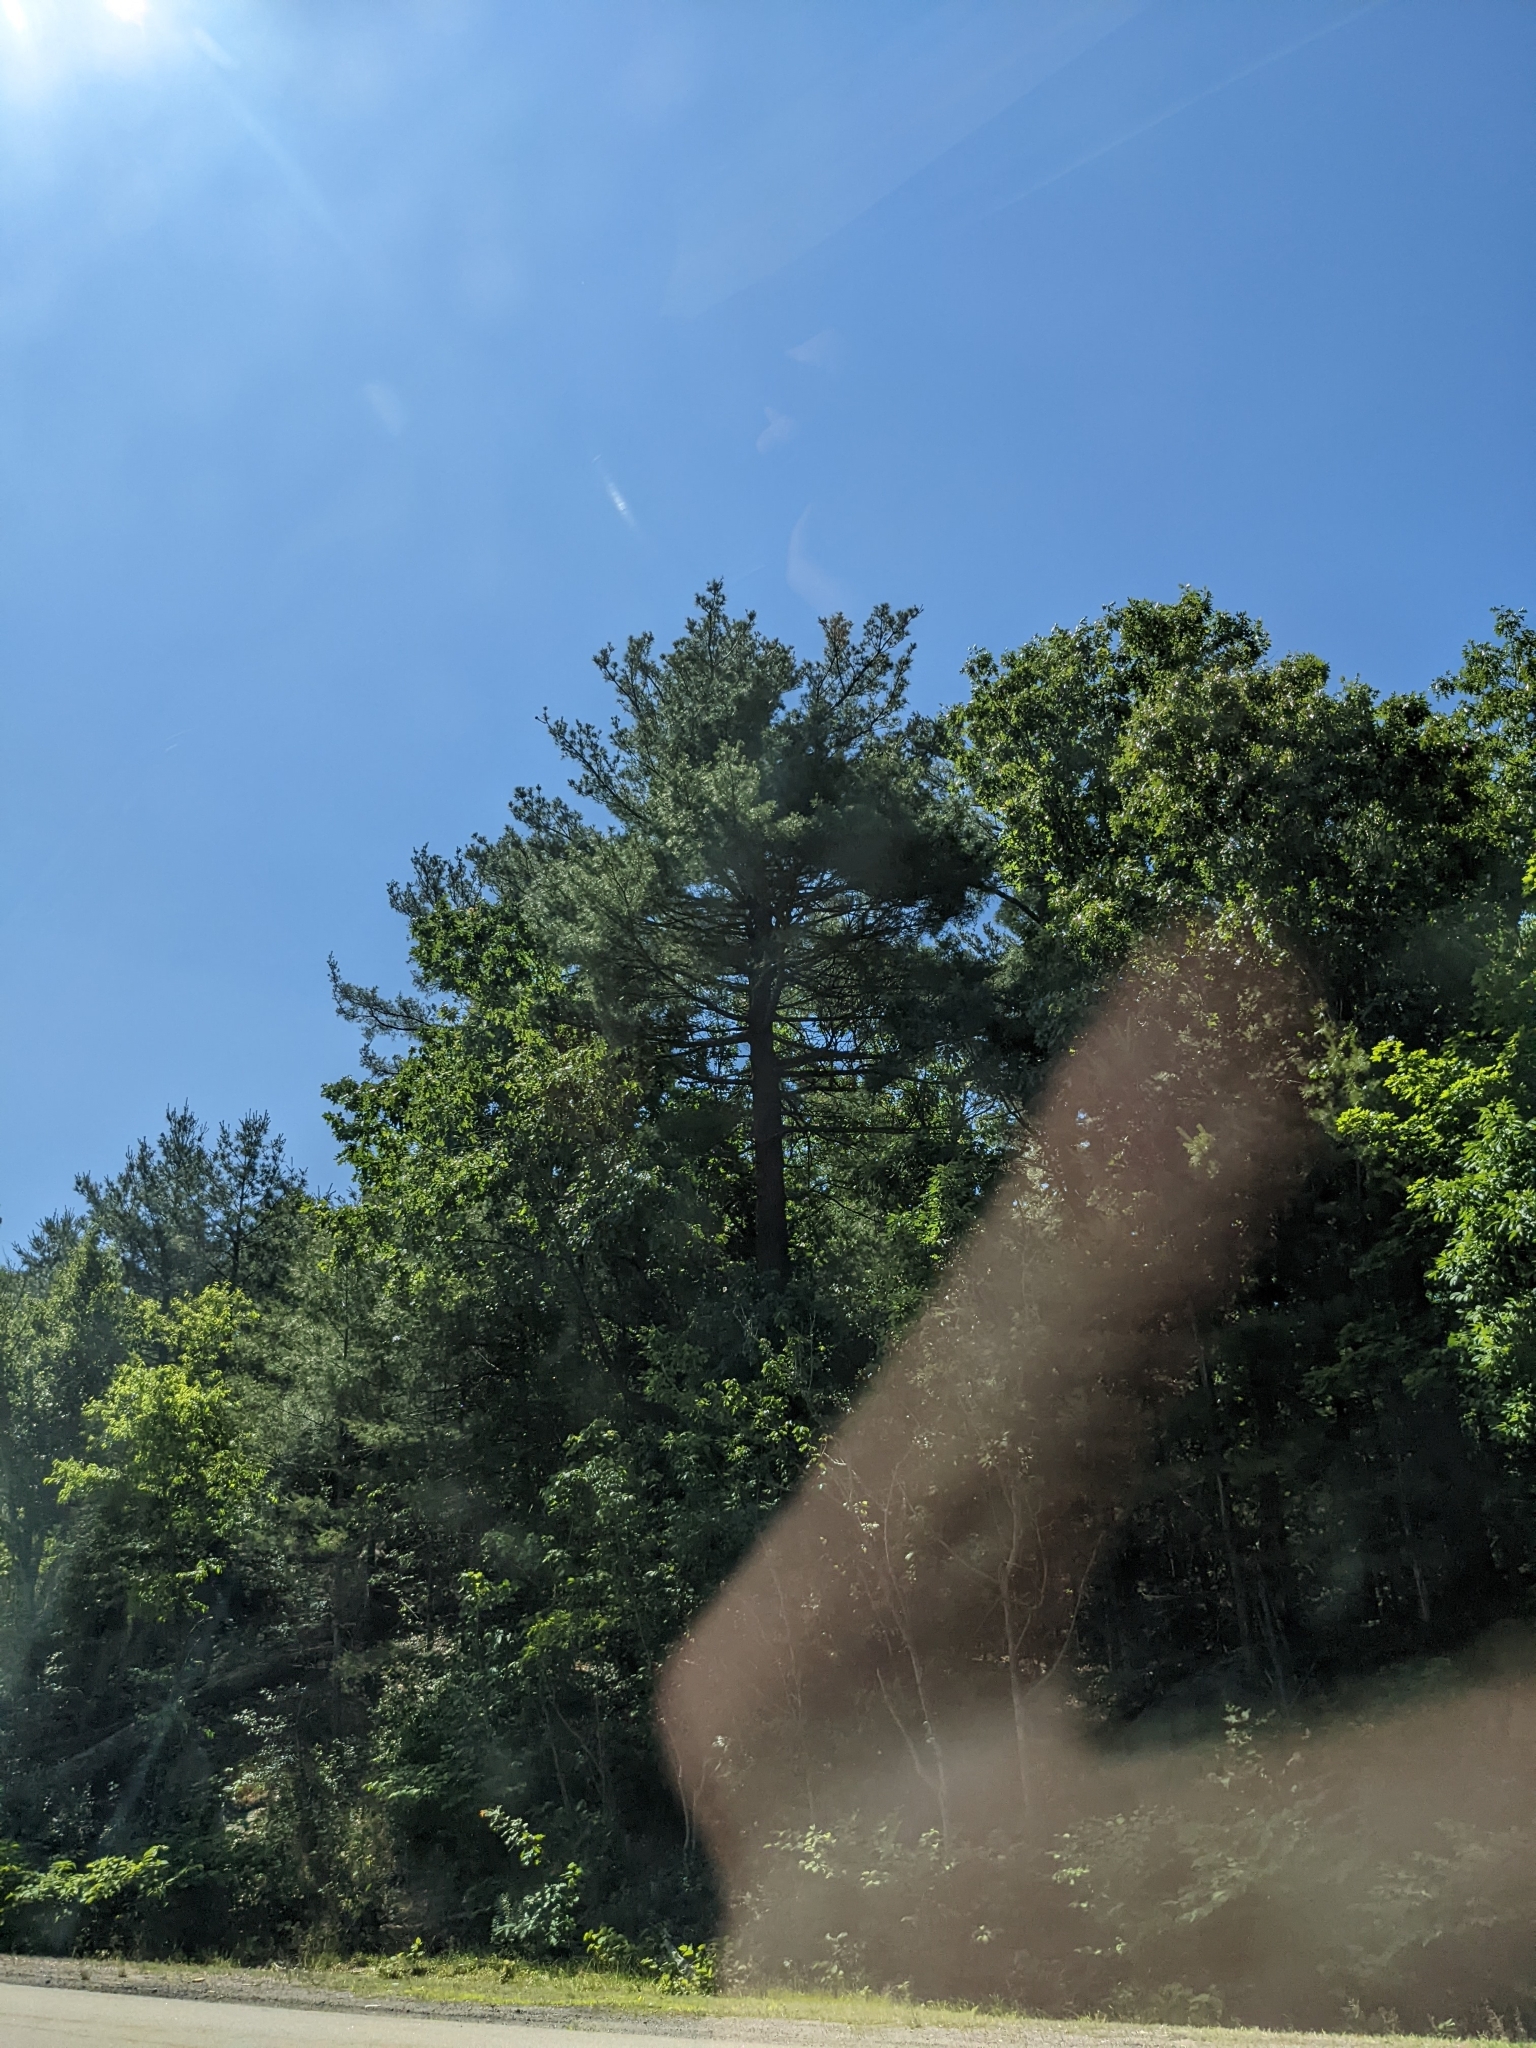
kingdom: Plantae
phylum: Tracheophyta
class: Pinopsida
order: Pinales
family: Pinaceae
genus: Pinus
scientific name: Pinus strobus
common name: Weymouth pine
